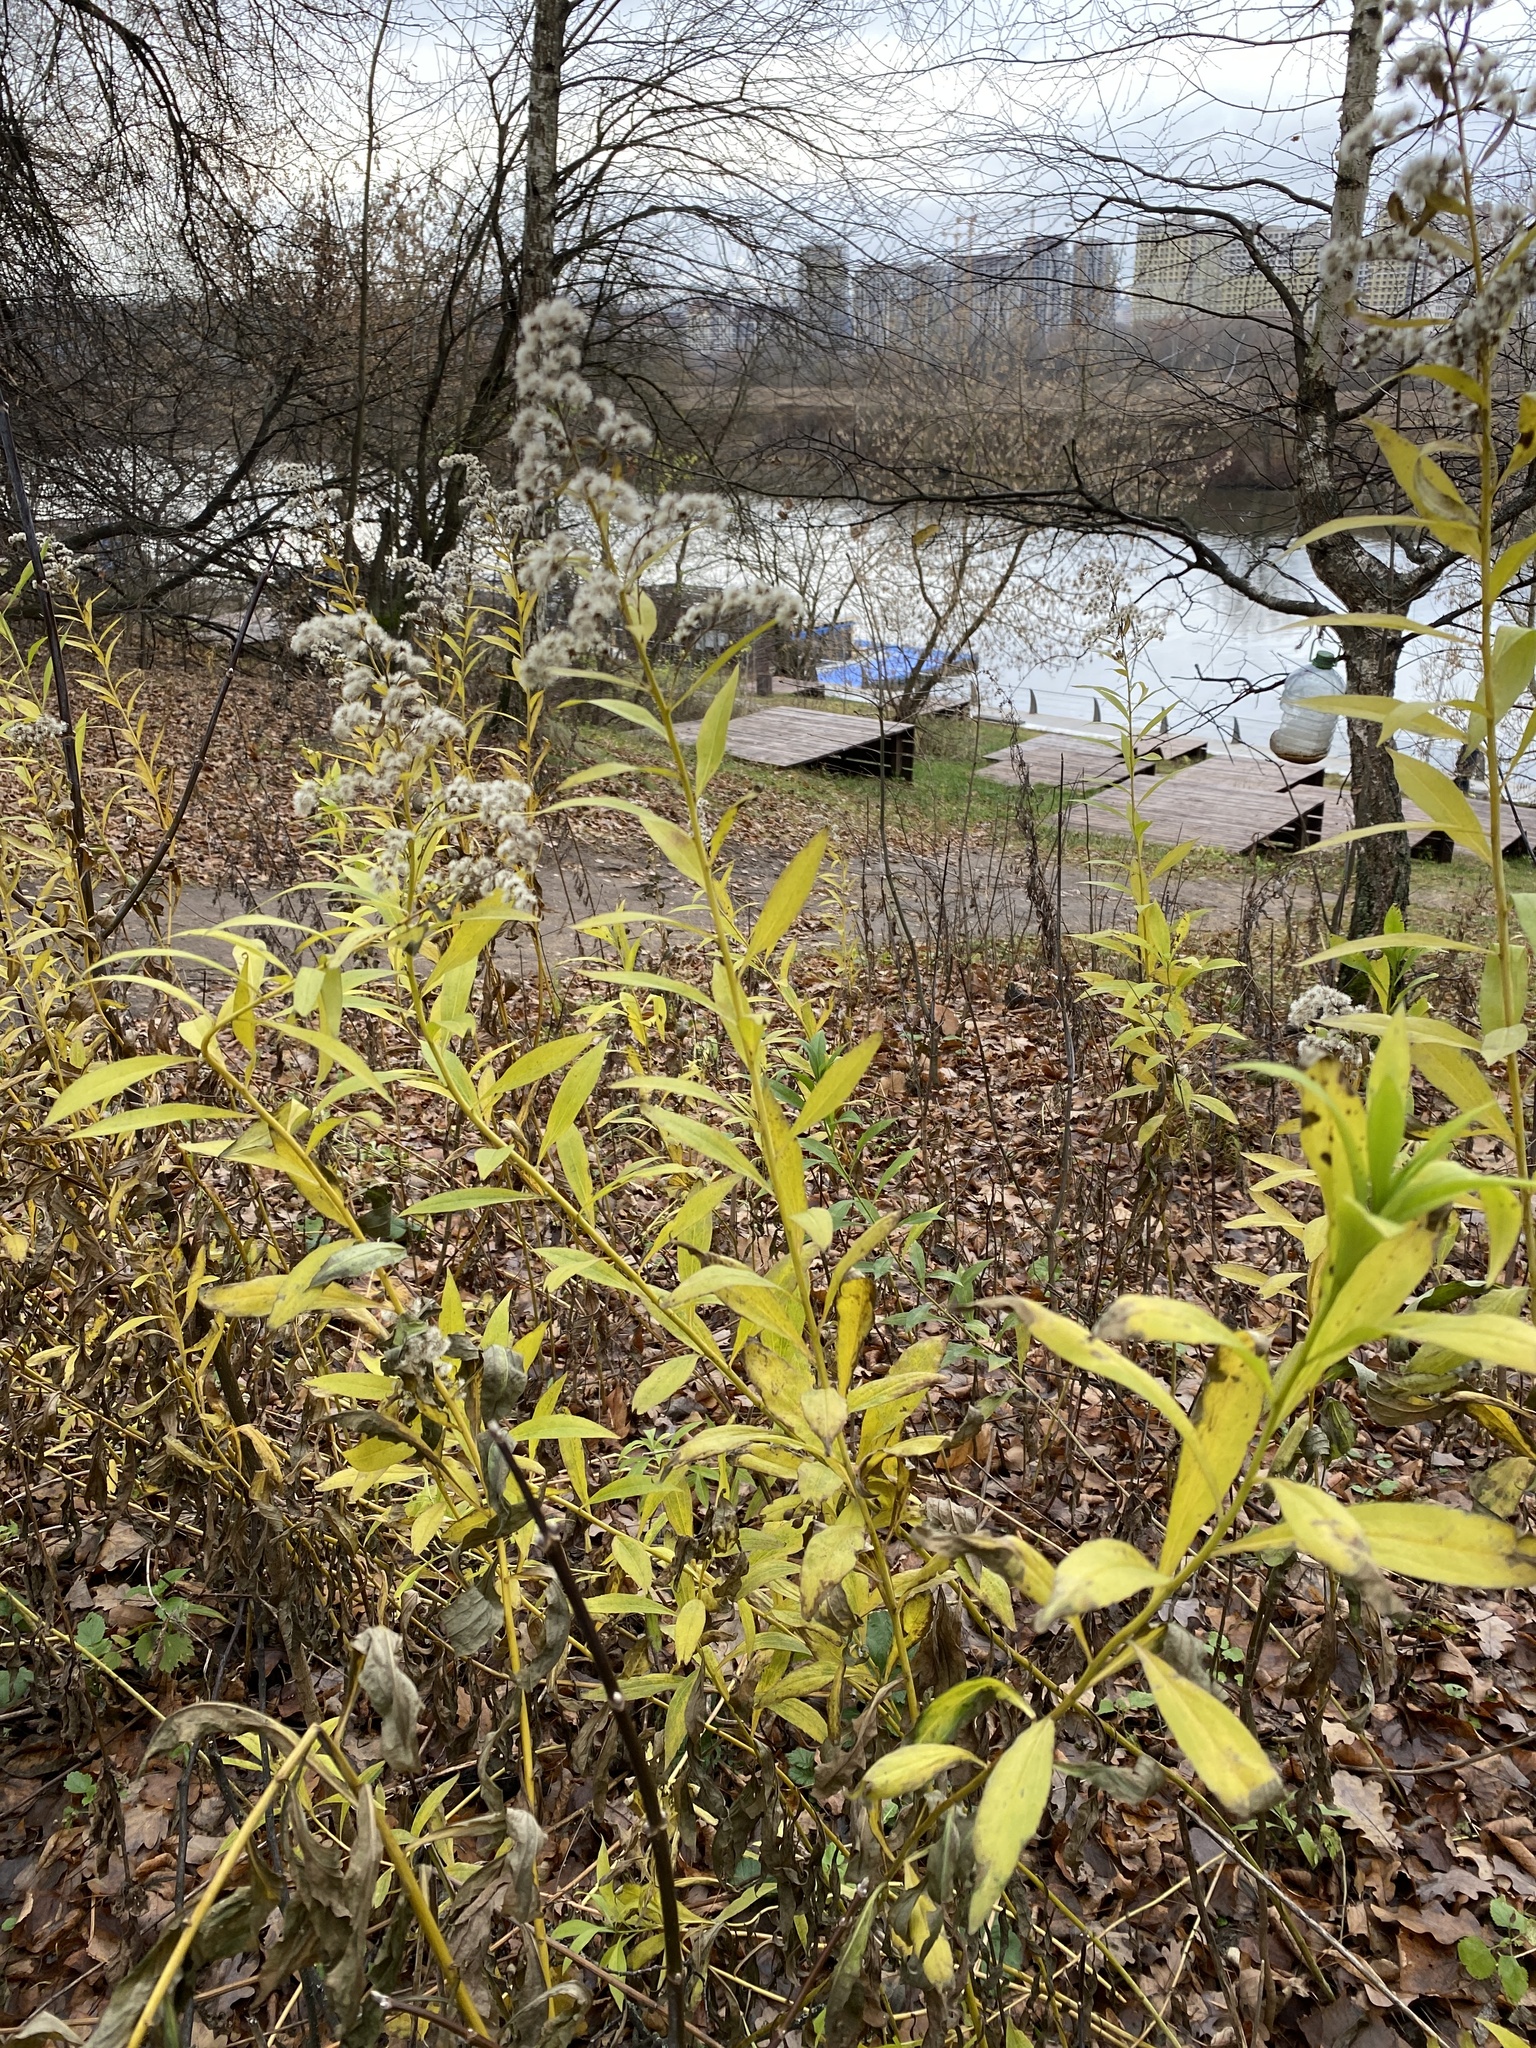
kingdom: Plantae
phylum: Tracheophyta
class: Magnoliopsida
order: Asterales
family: Asteraceae
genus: Solidago
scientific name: Solidago gigantea
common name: Giant goldenrod
